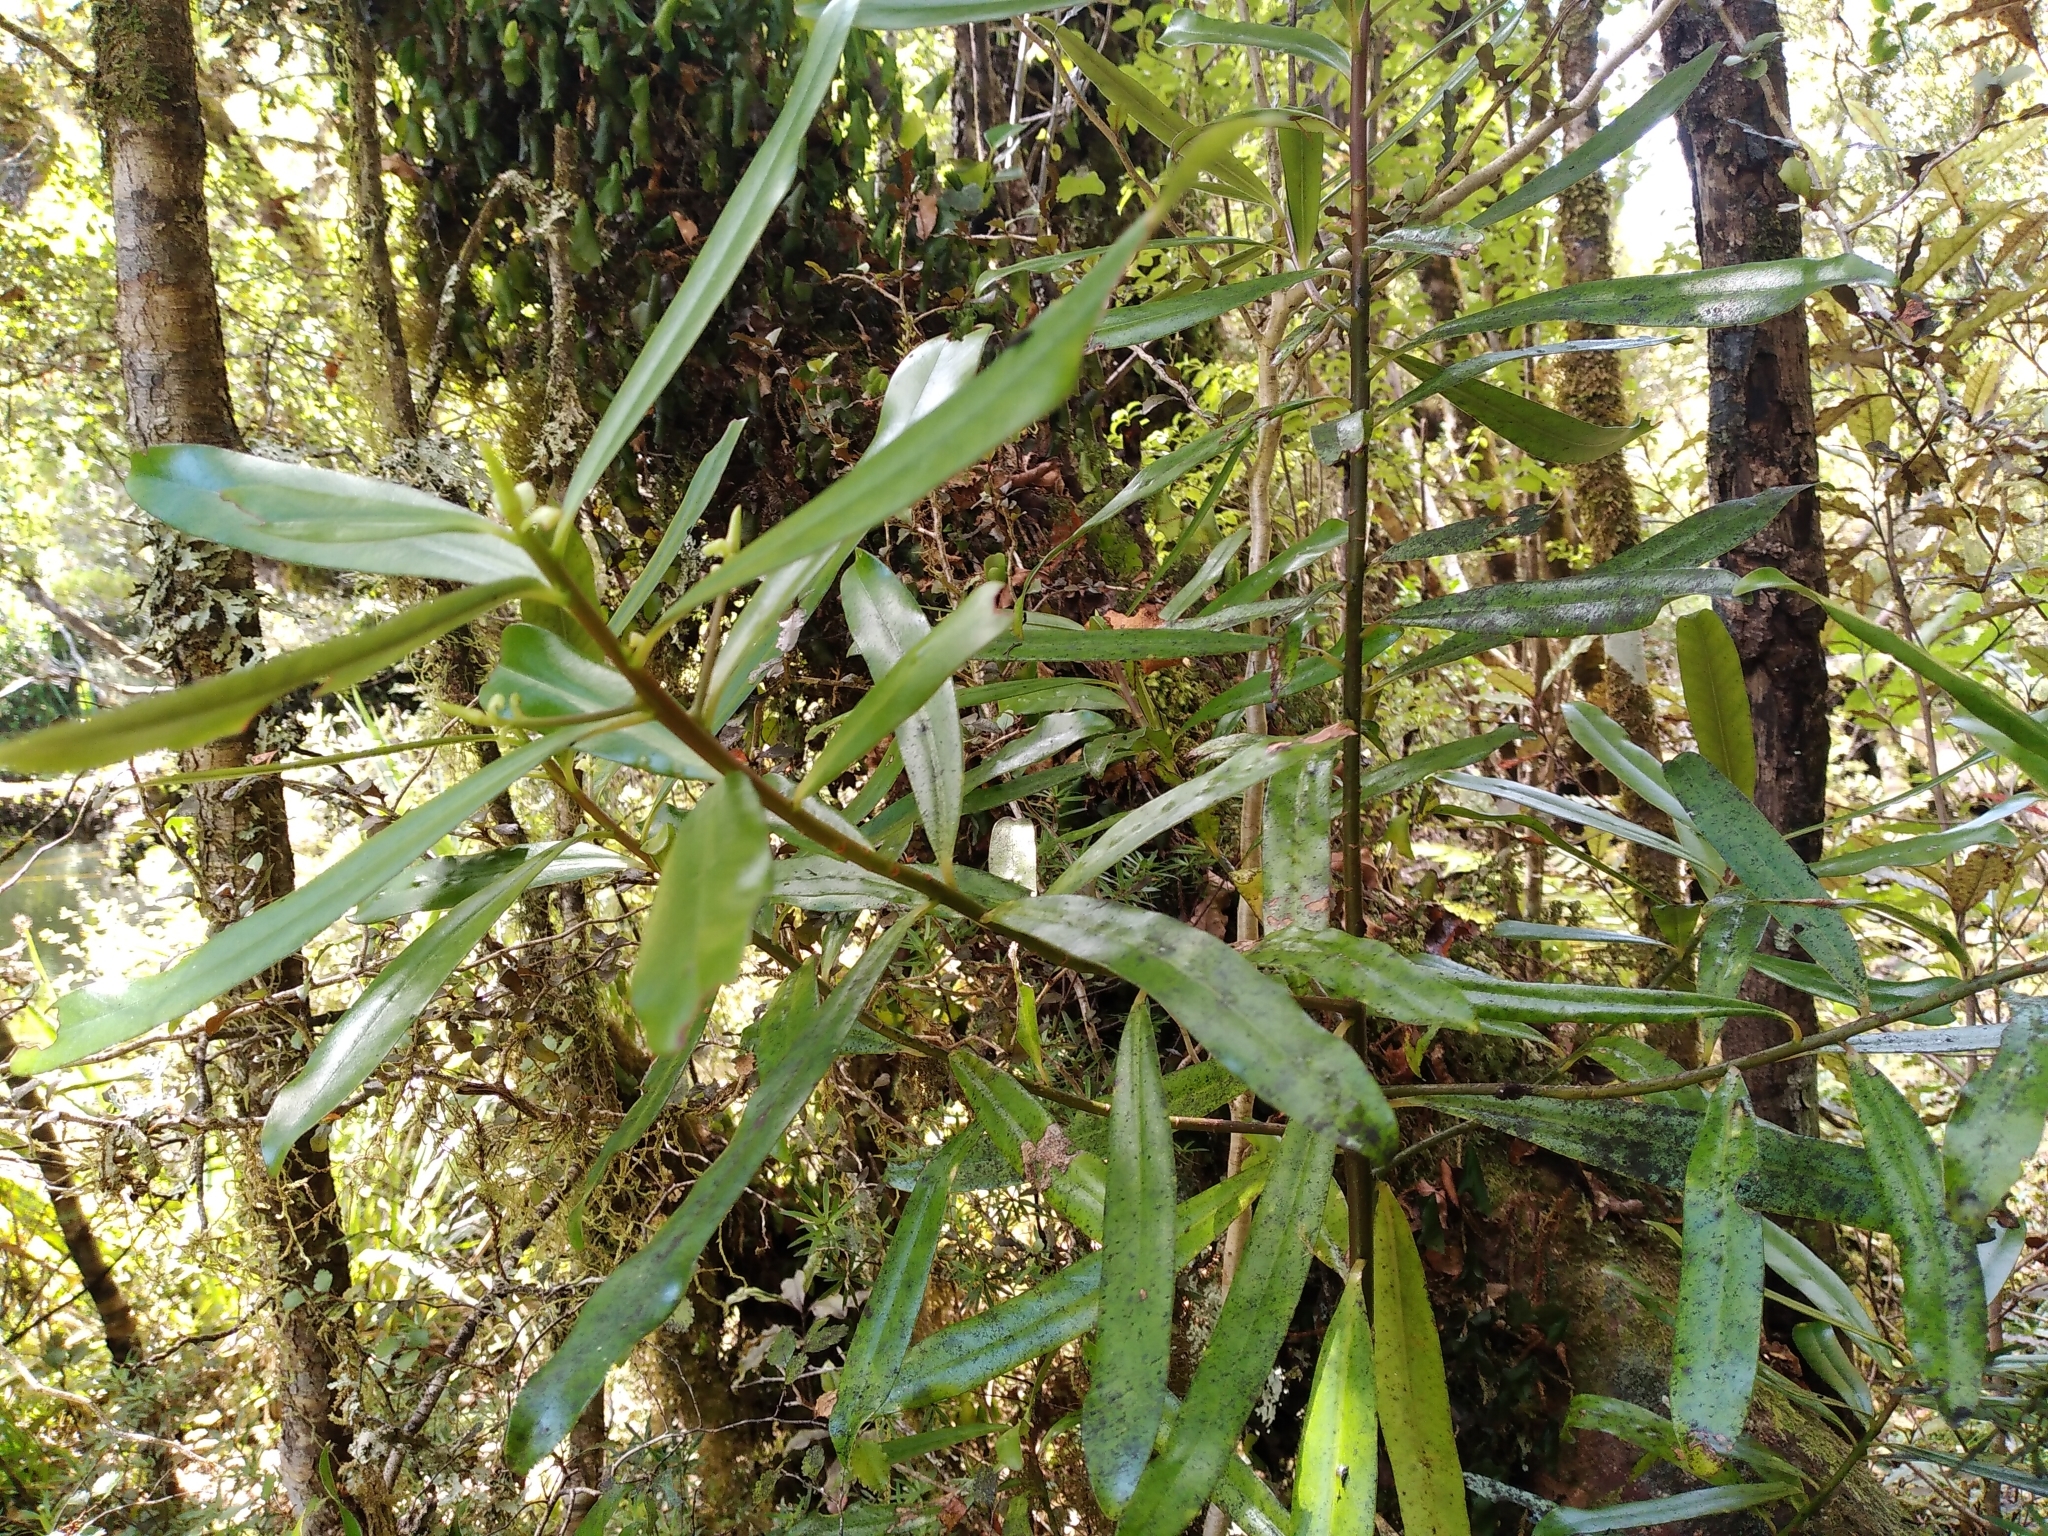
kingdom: Plantae
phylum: Tracheophyta
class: Magnoliopsida
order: Ericales
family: Primulaceae
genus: Myrsine
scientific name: Myrsine salicina
